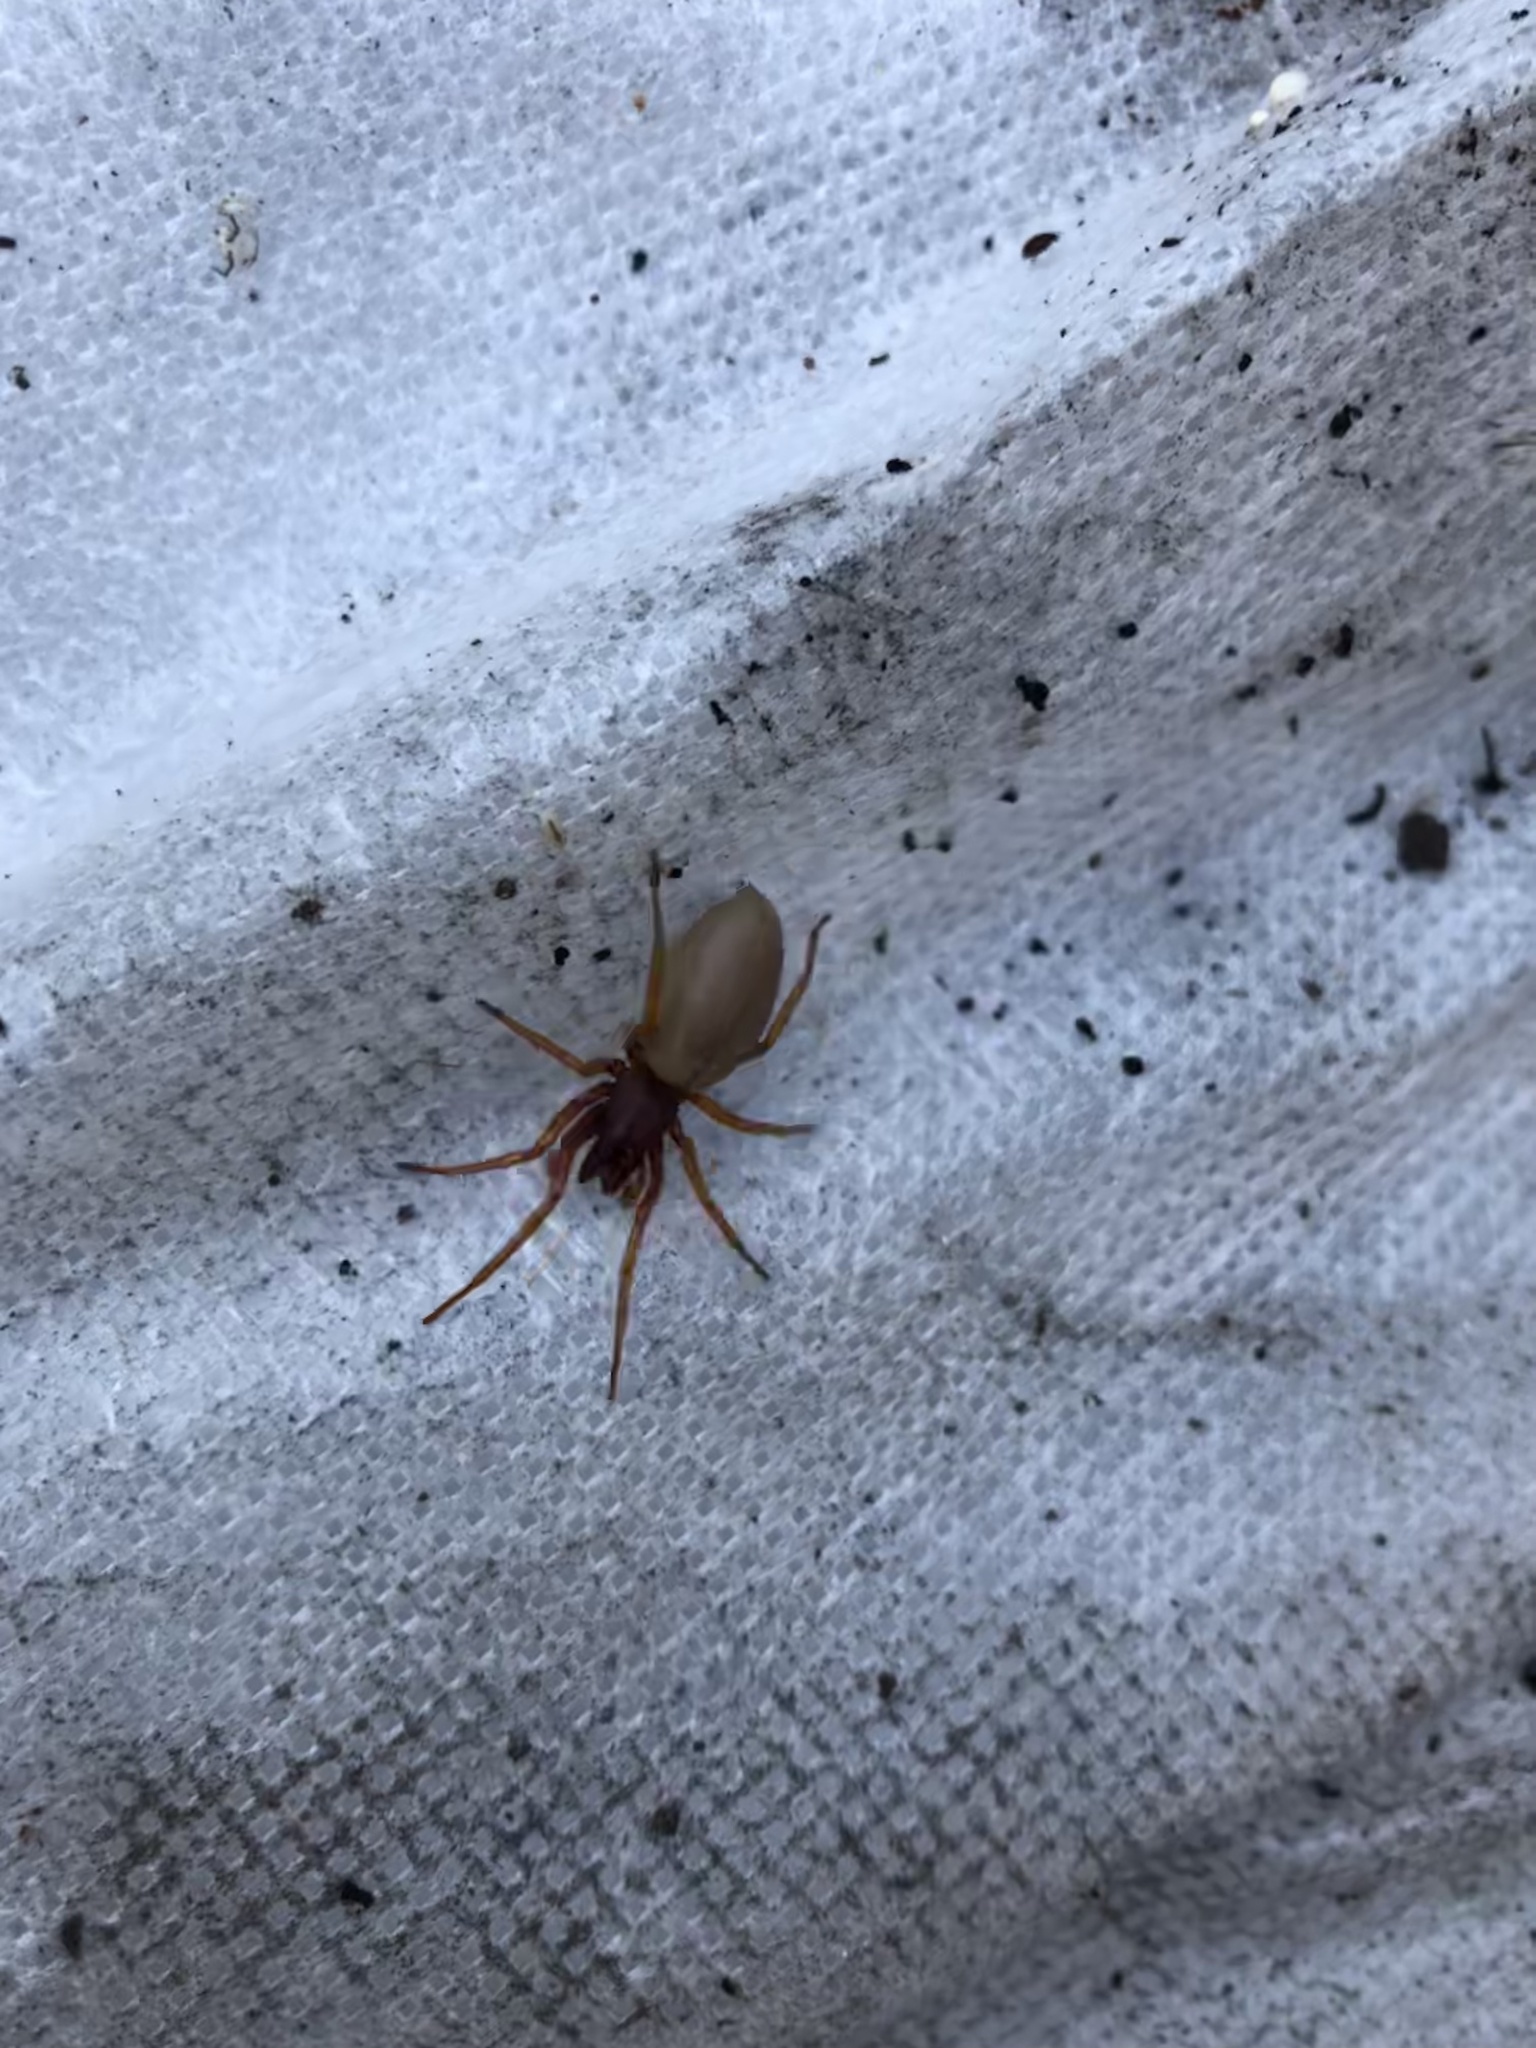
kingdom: Animalia
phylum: Arthropoda
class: Arachnida
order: Araneae
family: Dysderidae
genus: Dysdera
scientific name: Dysdera crocata
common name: Woodlouse spider
